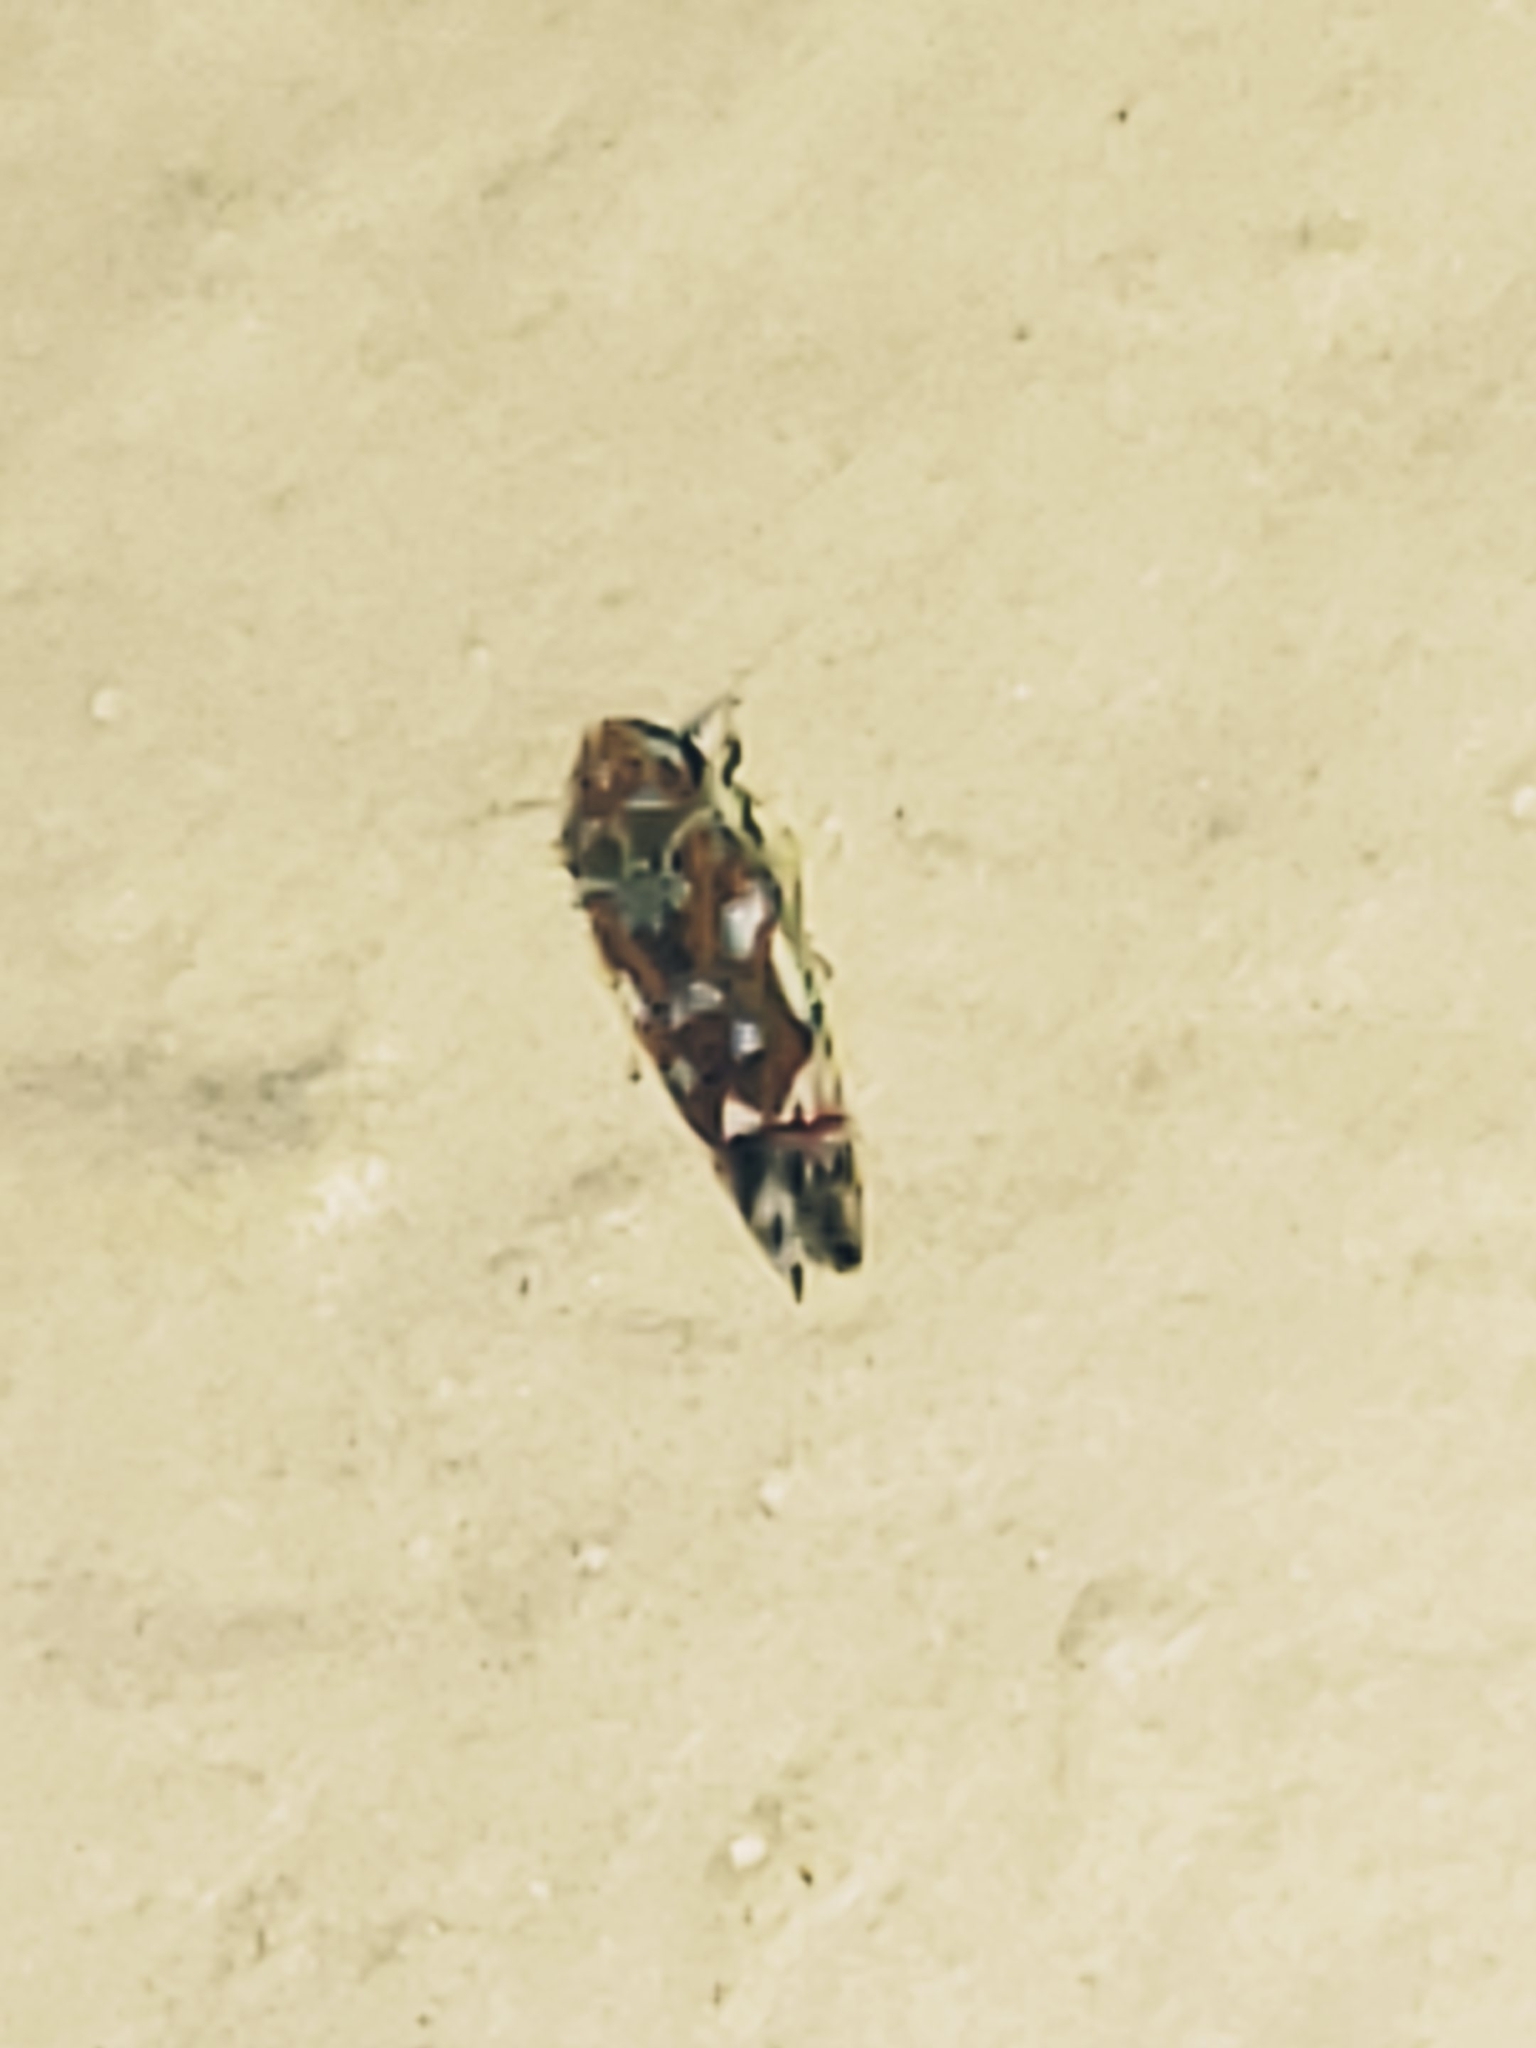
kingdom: Animalia
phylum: Arthropoda
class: Insecta
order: Hemiptera
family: Cicadellidae
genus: Erythroneura
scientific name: Erythroneura reflecta
